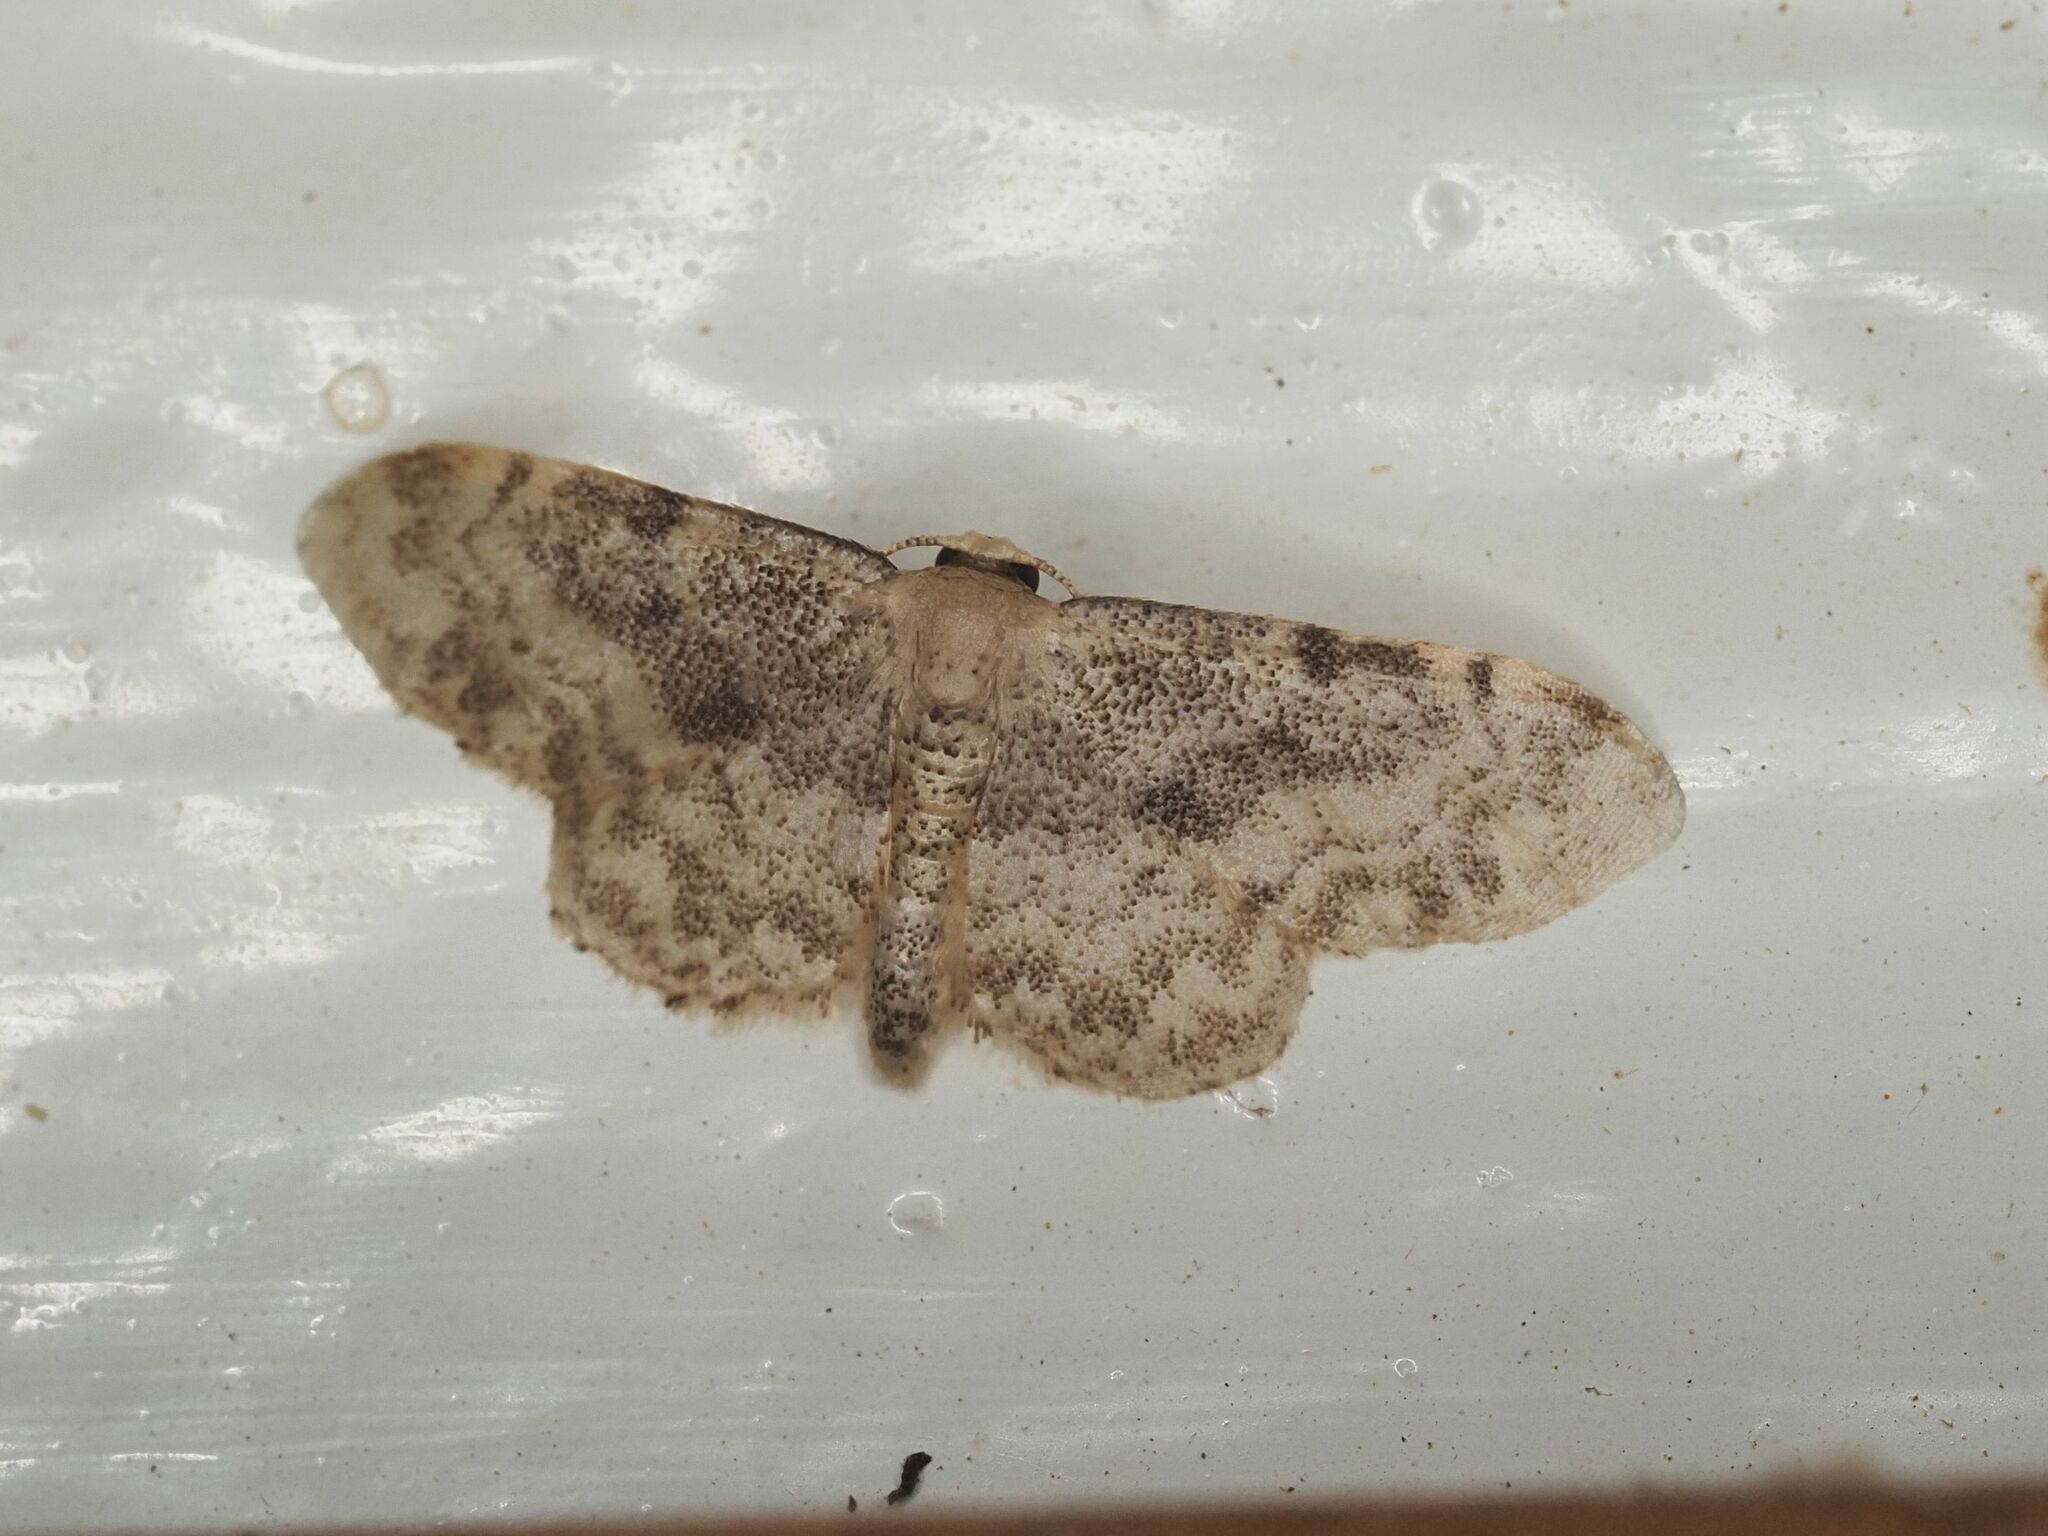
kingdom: Animalia
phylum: Arthropoda
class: Insecta
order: Lepidoptera
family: Geometridae
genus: Idaea
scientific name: Idaea inquinata
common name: Rusty wave
